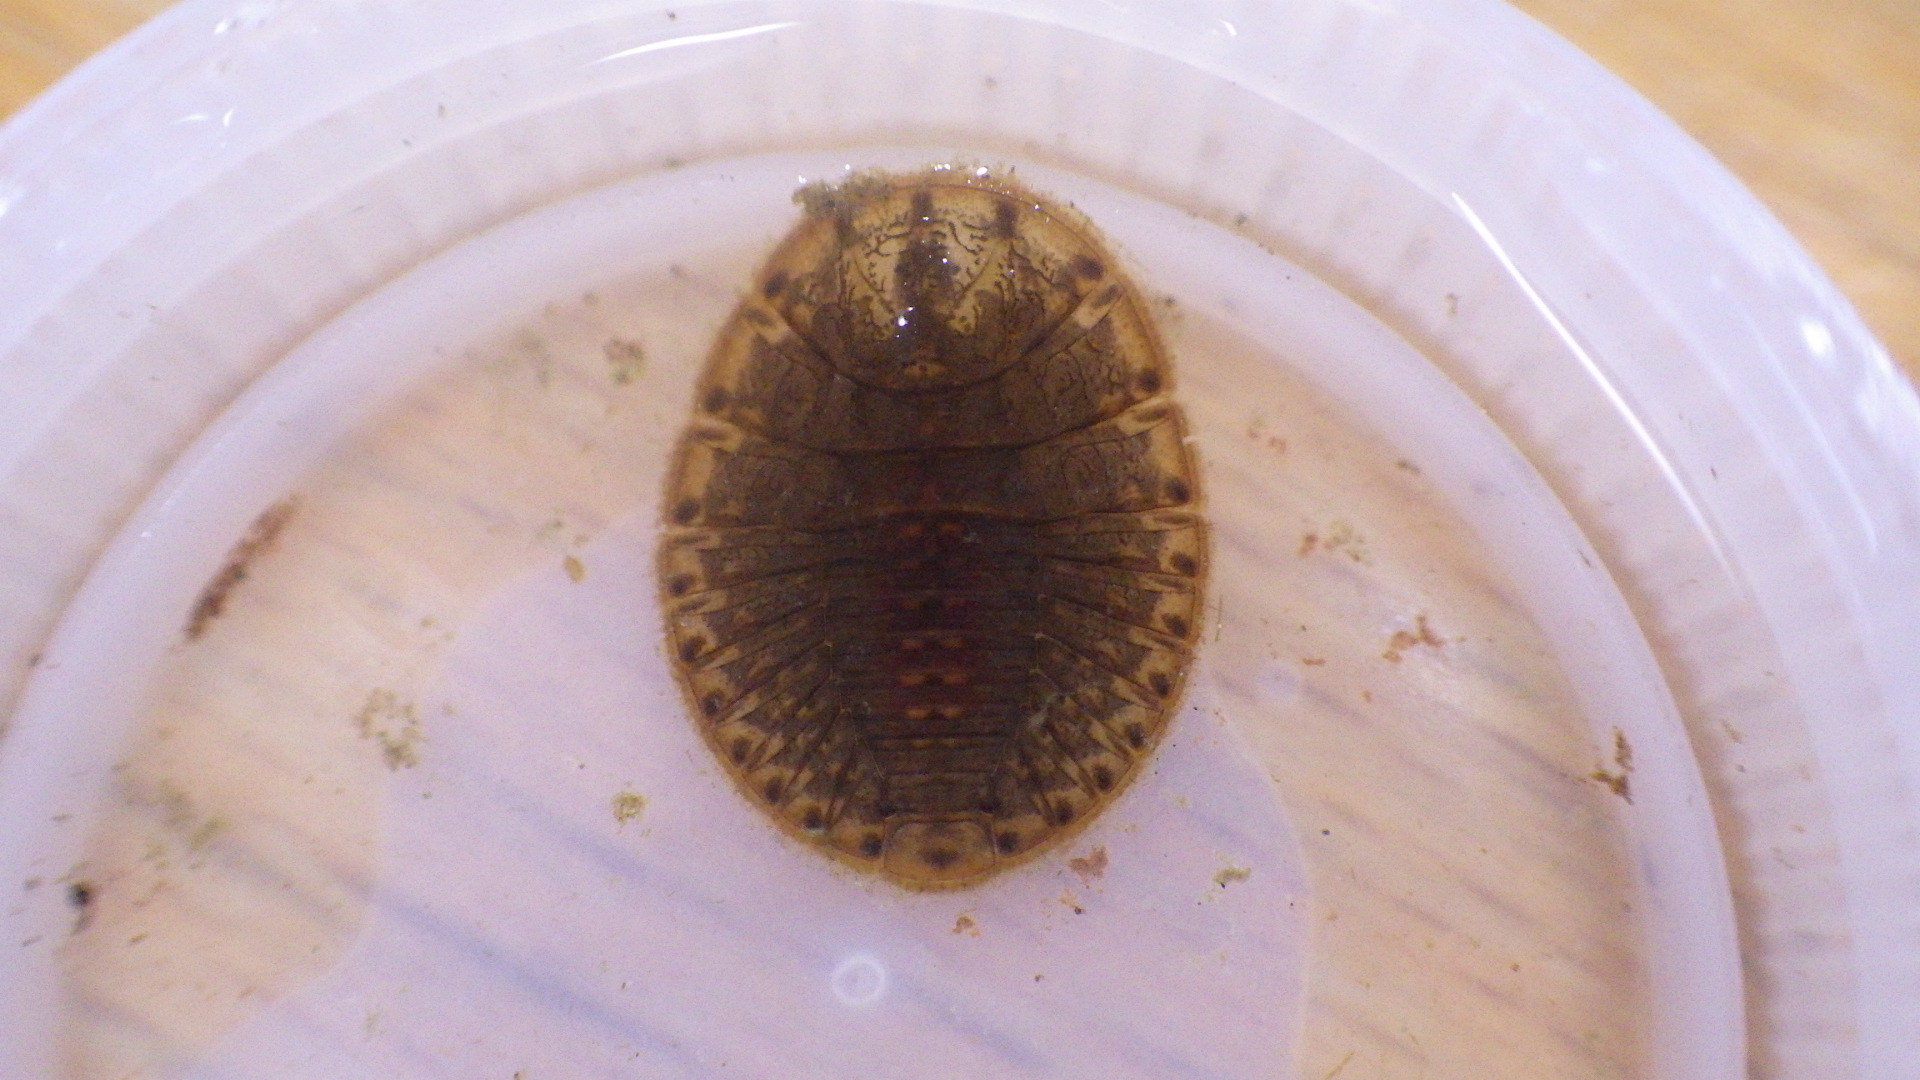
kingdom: Animalia
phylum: Arthropoda
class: Insecta
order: Coleoptera
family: Psephenidae
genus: Psephenus
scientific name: Psephenus herricki
